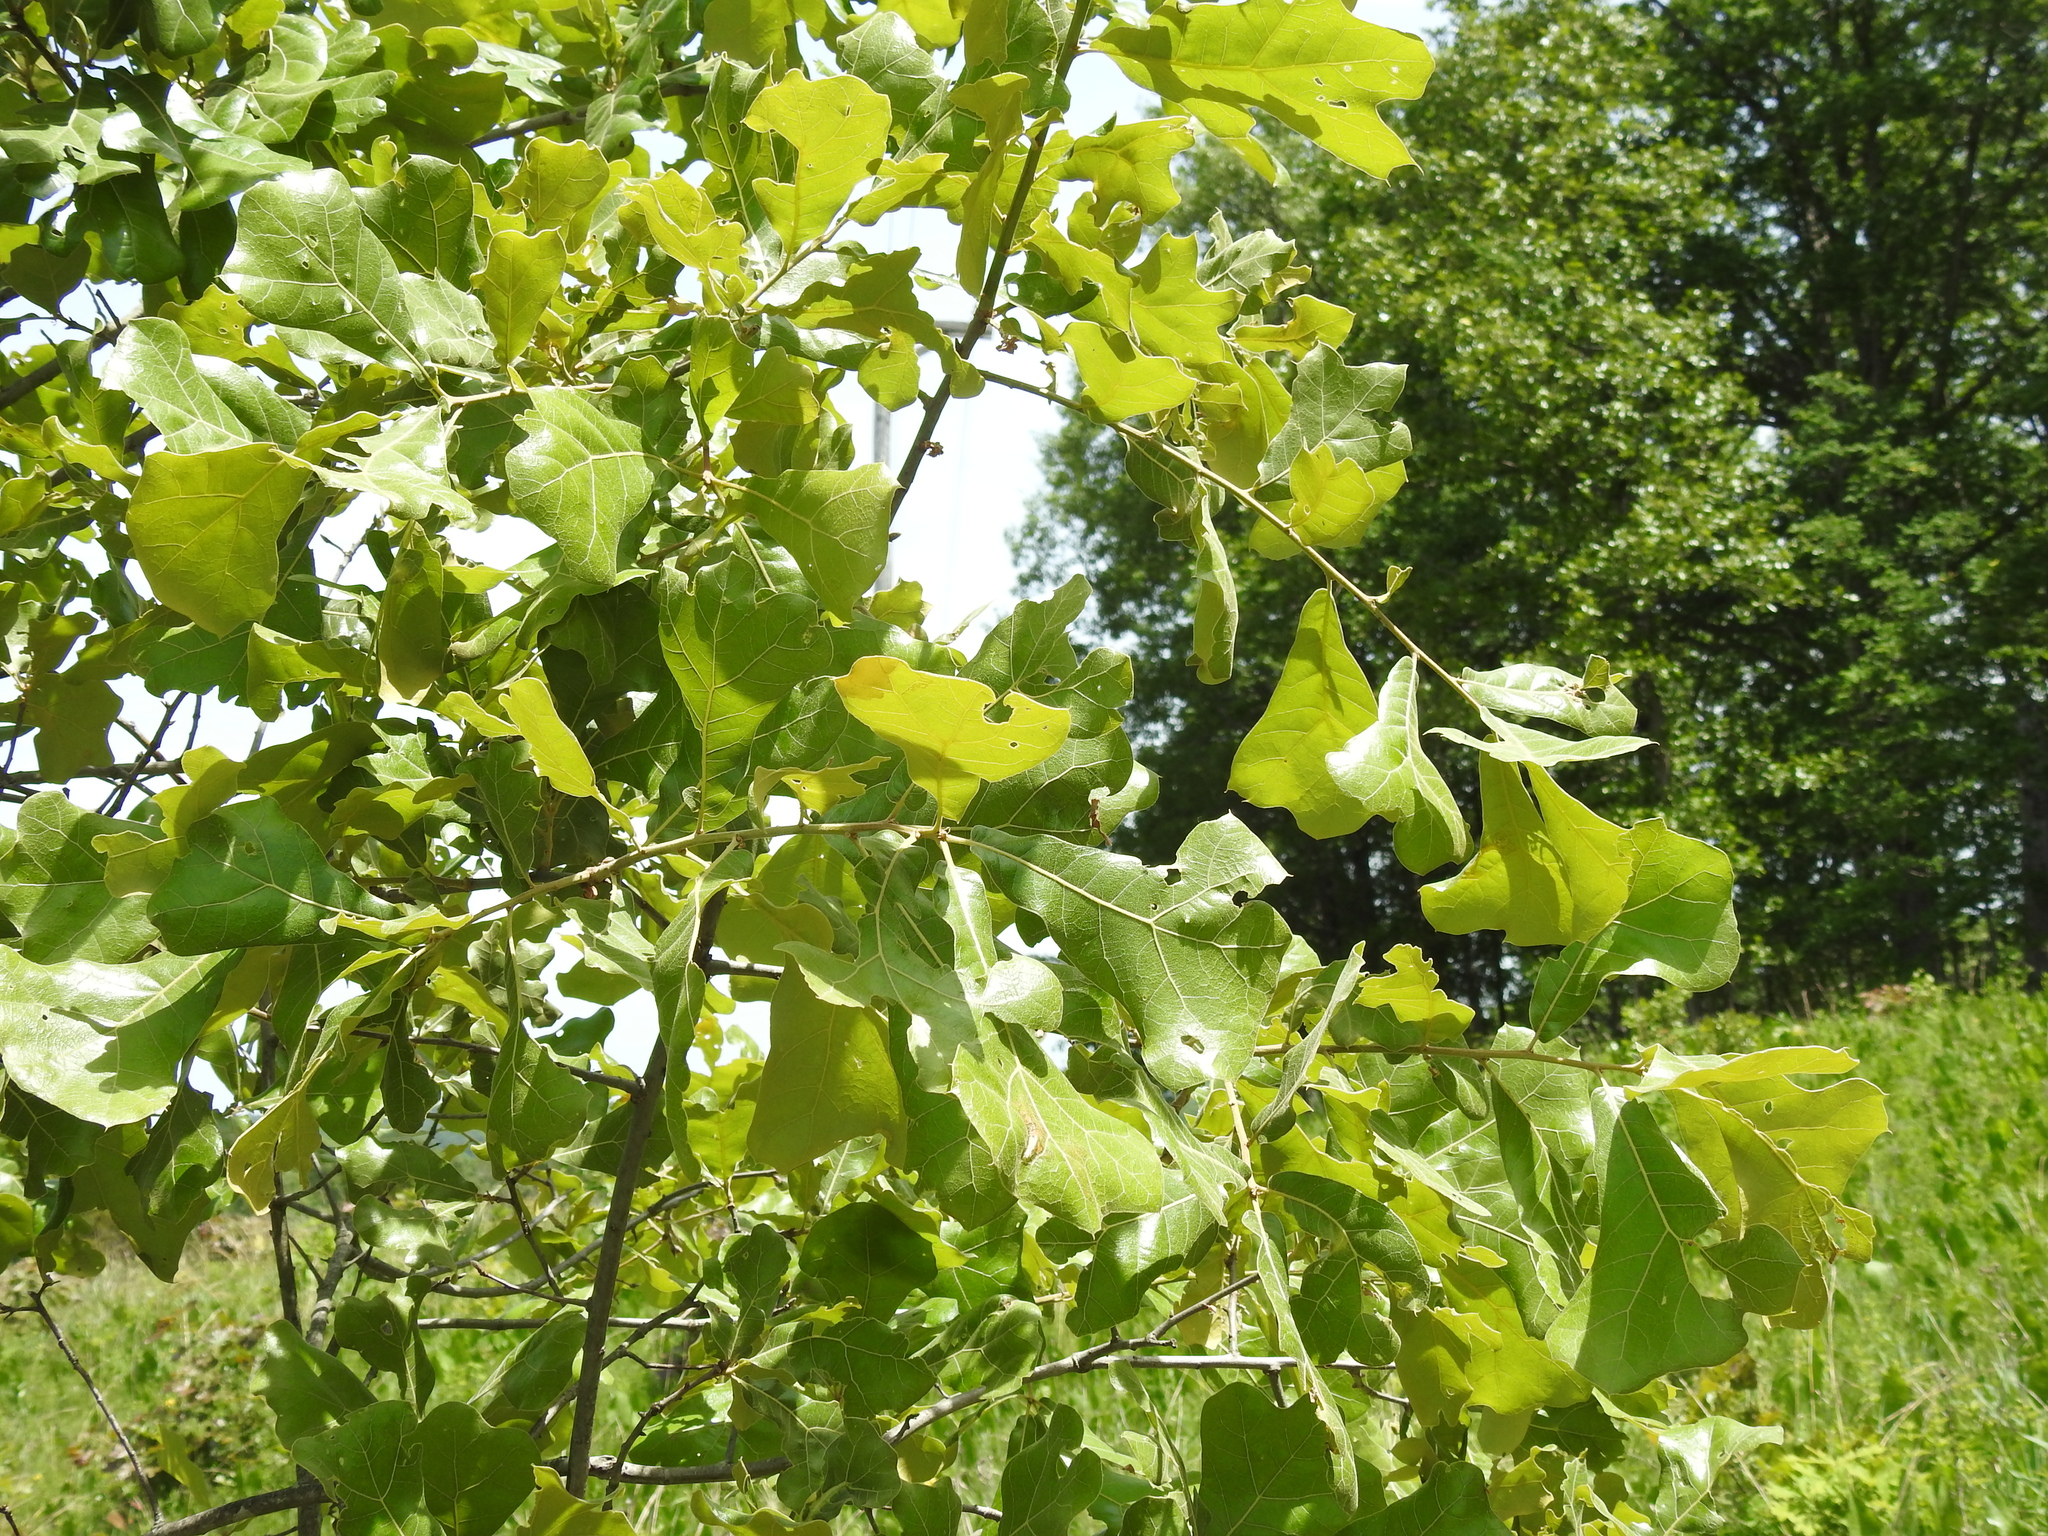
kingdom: Plantae
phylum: Tracheophyta
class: Magnoliopsida
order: Fagales
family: Fagaceae
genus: Quercus
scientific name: Quercus marilandica
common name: Blackjack oak
